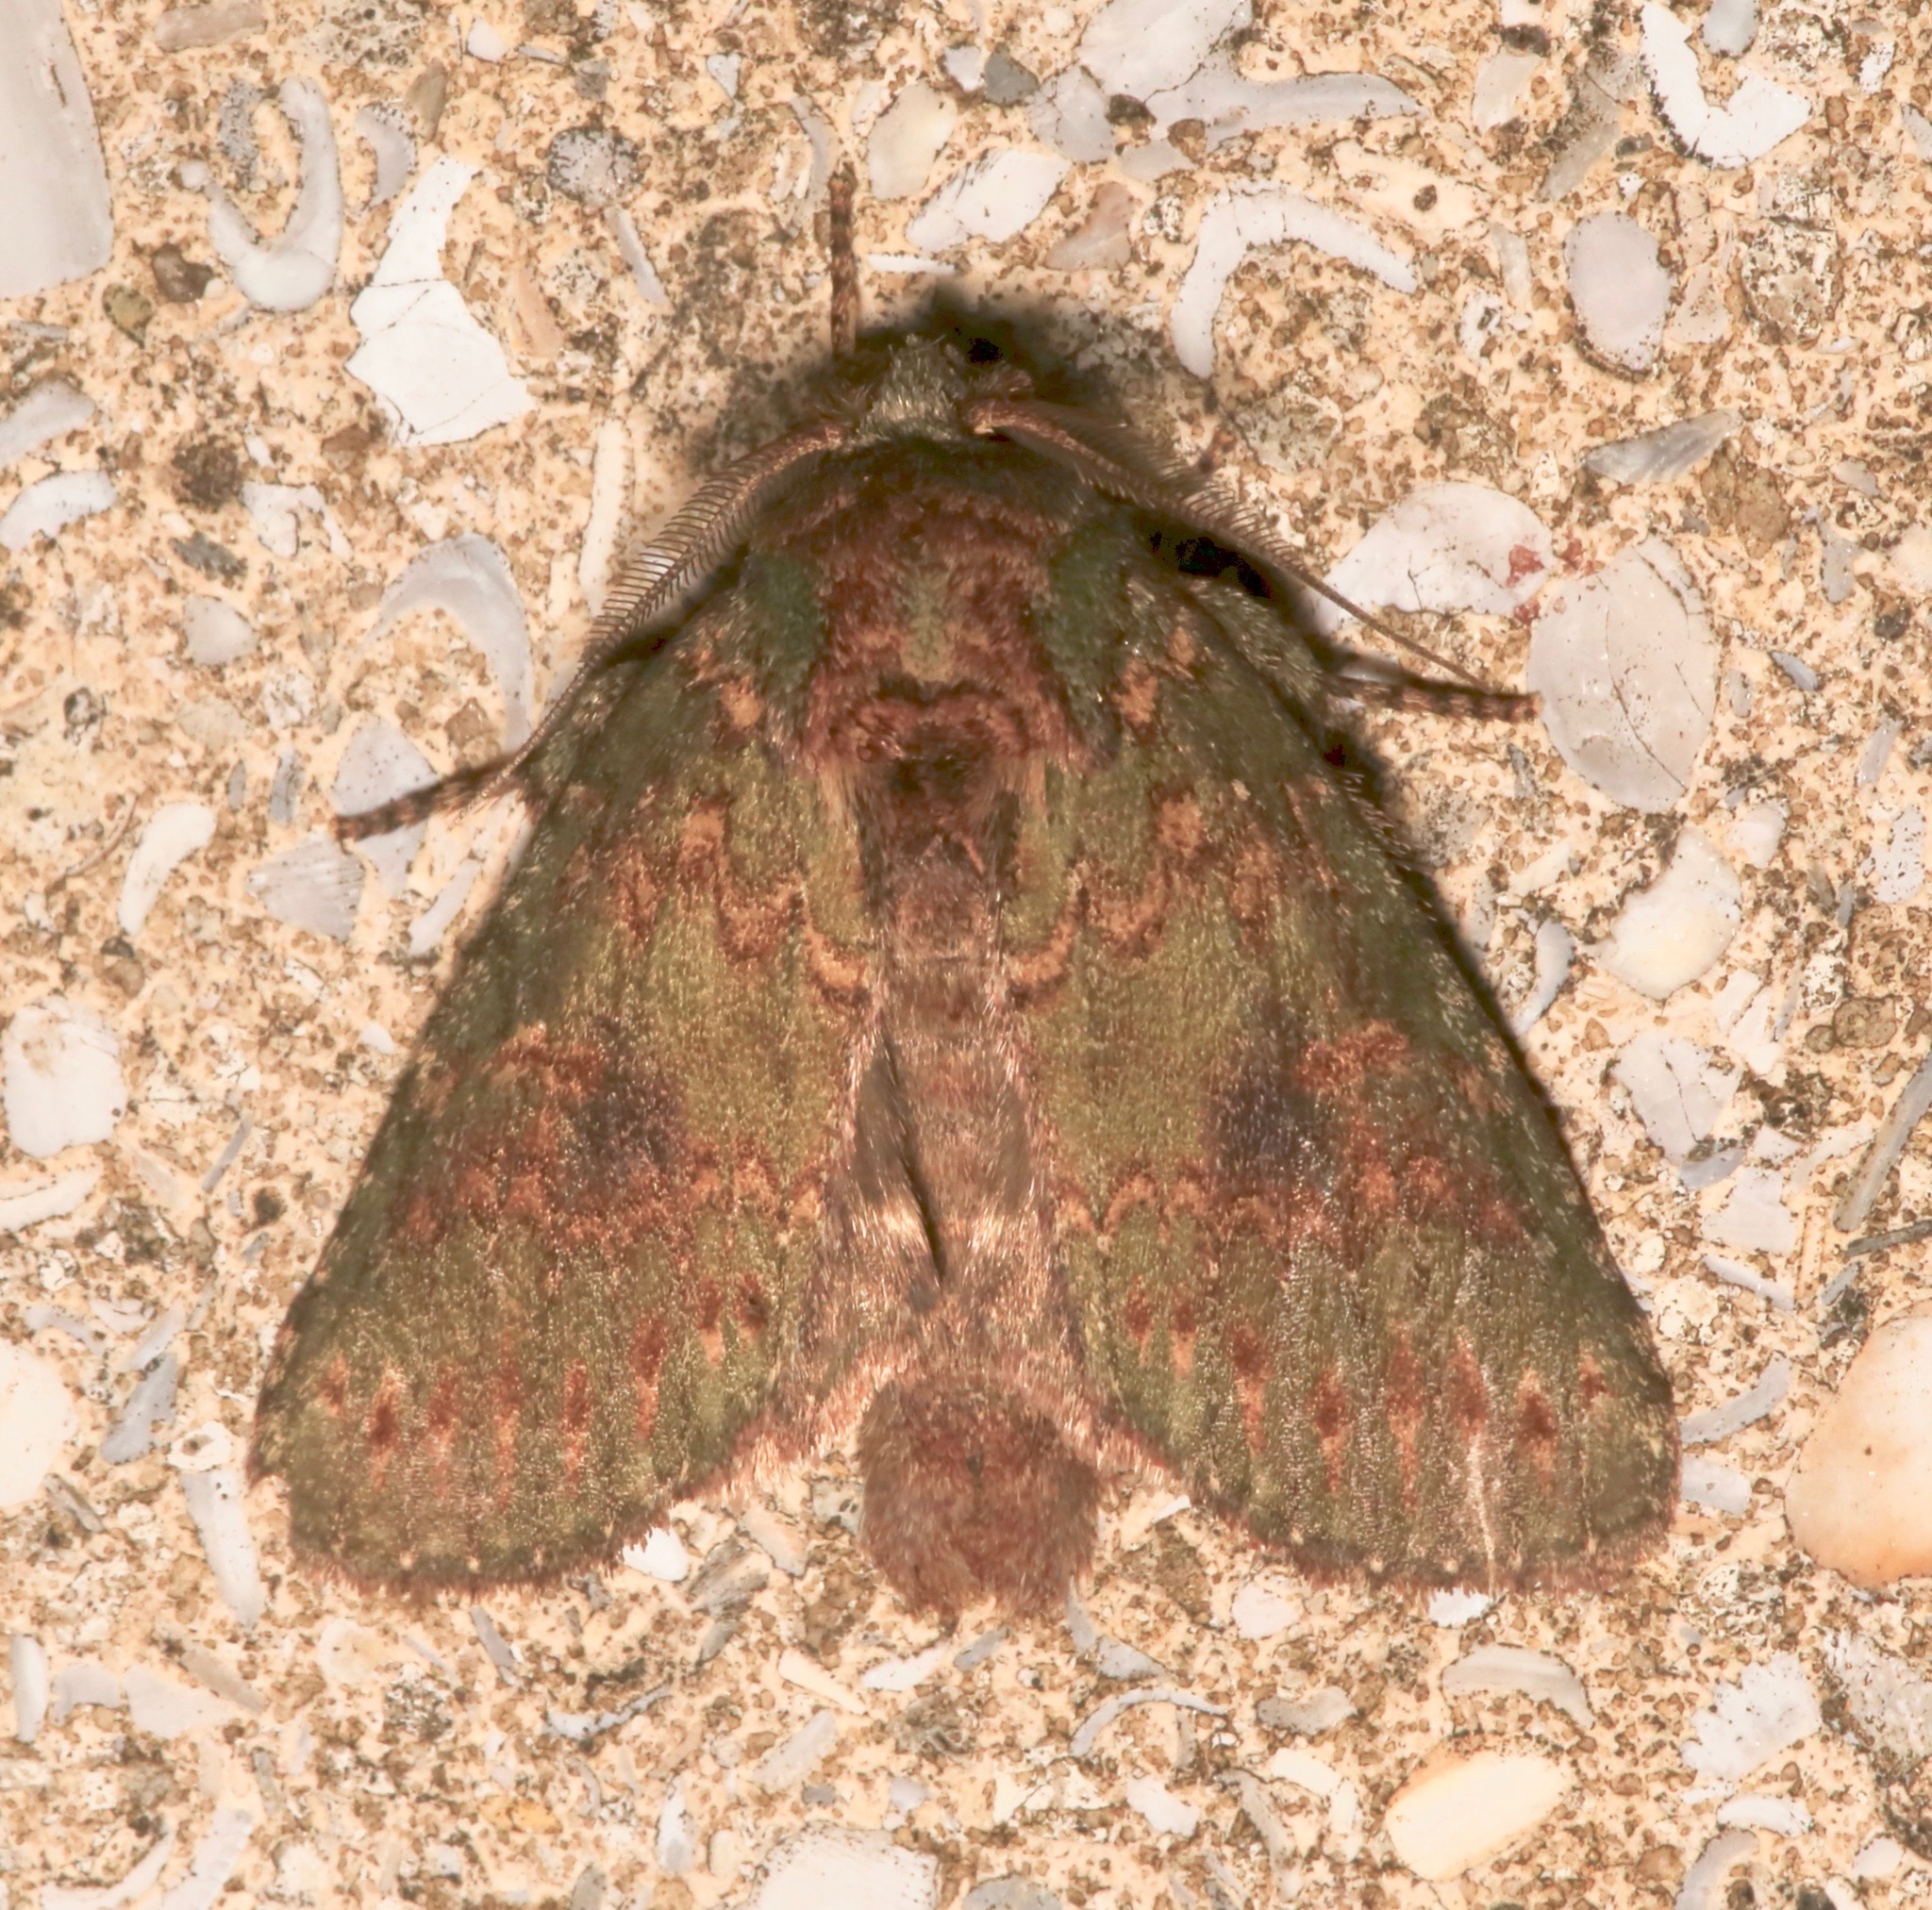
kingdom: Animalia
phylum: Arthropoda
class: Insecta
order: Lepidoptera
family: Notodontidae
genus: Disphragis
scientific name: Disphragis Cecrita biundata
